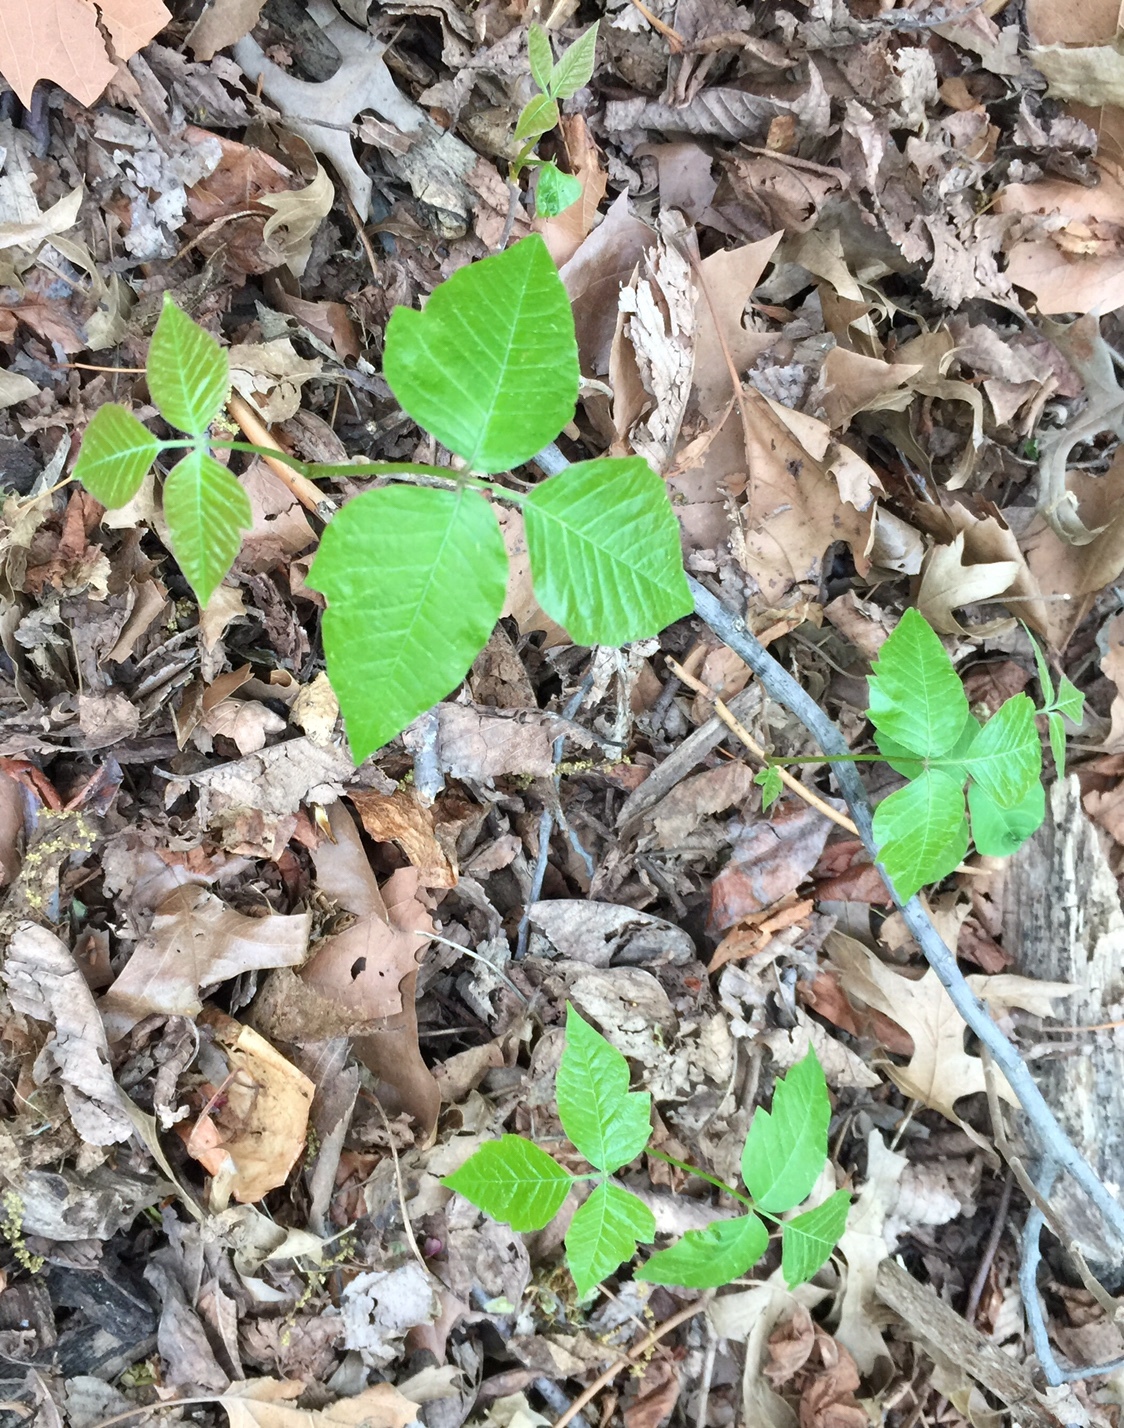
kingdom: Plantae
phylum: Tracheophyta
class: Magnoliopsida
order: Sapindales
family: Anacardiaceae
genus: Toxicodendron
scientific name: Toxicodendron radicans
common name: Poison ivy
